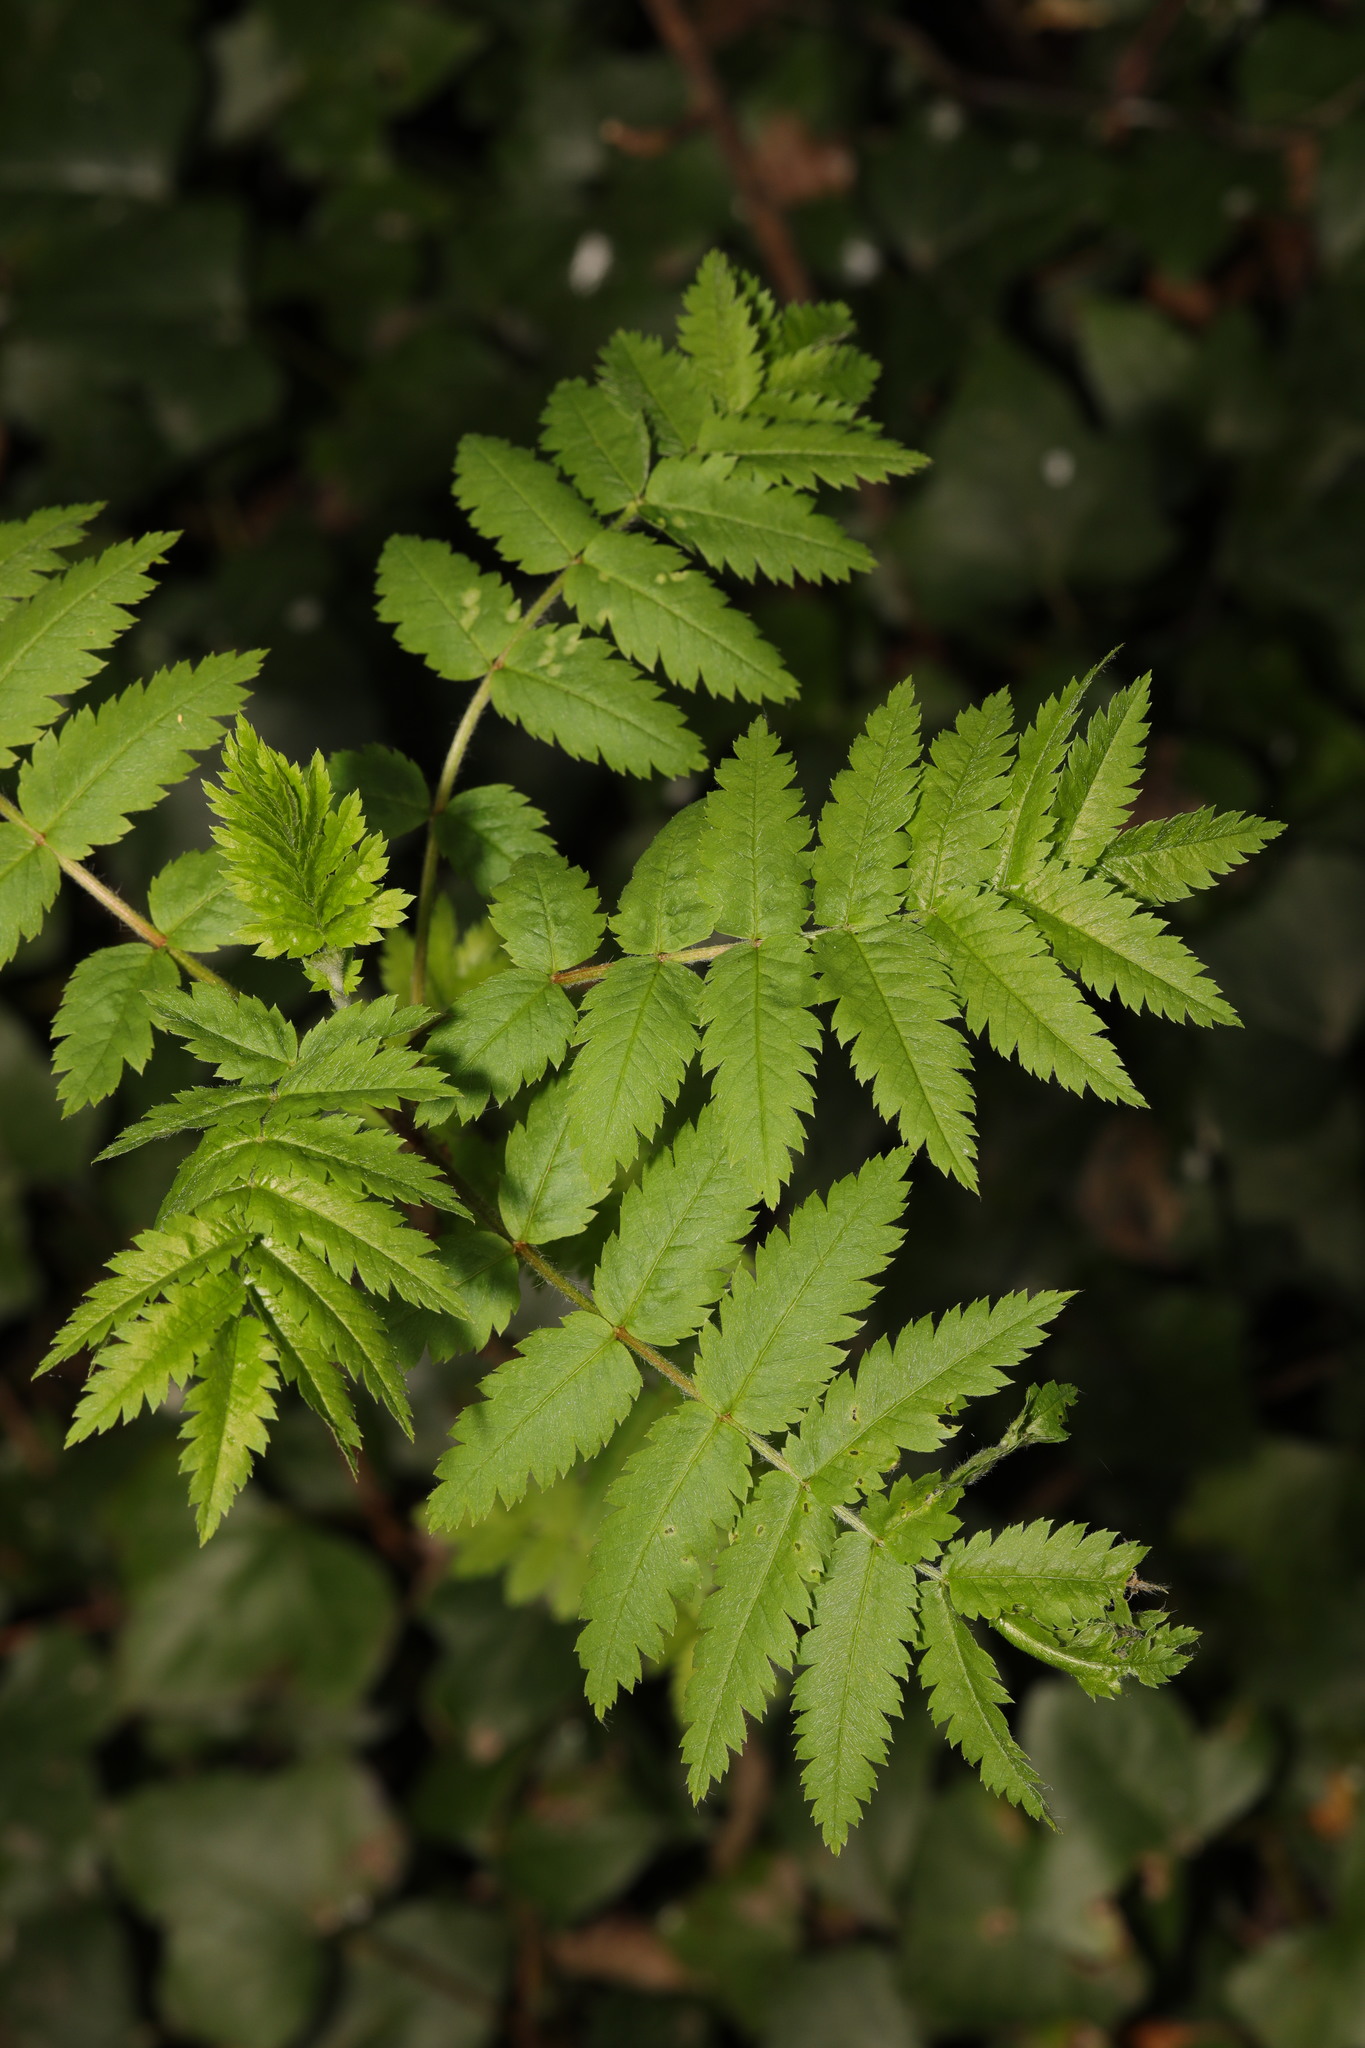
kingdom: Plantae
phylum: Tracheophyta
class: Magnoliopsida
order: Rosales
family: Rosaceae
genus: Sorbus
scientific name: Sorbus aucuparia
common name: Rowan
